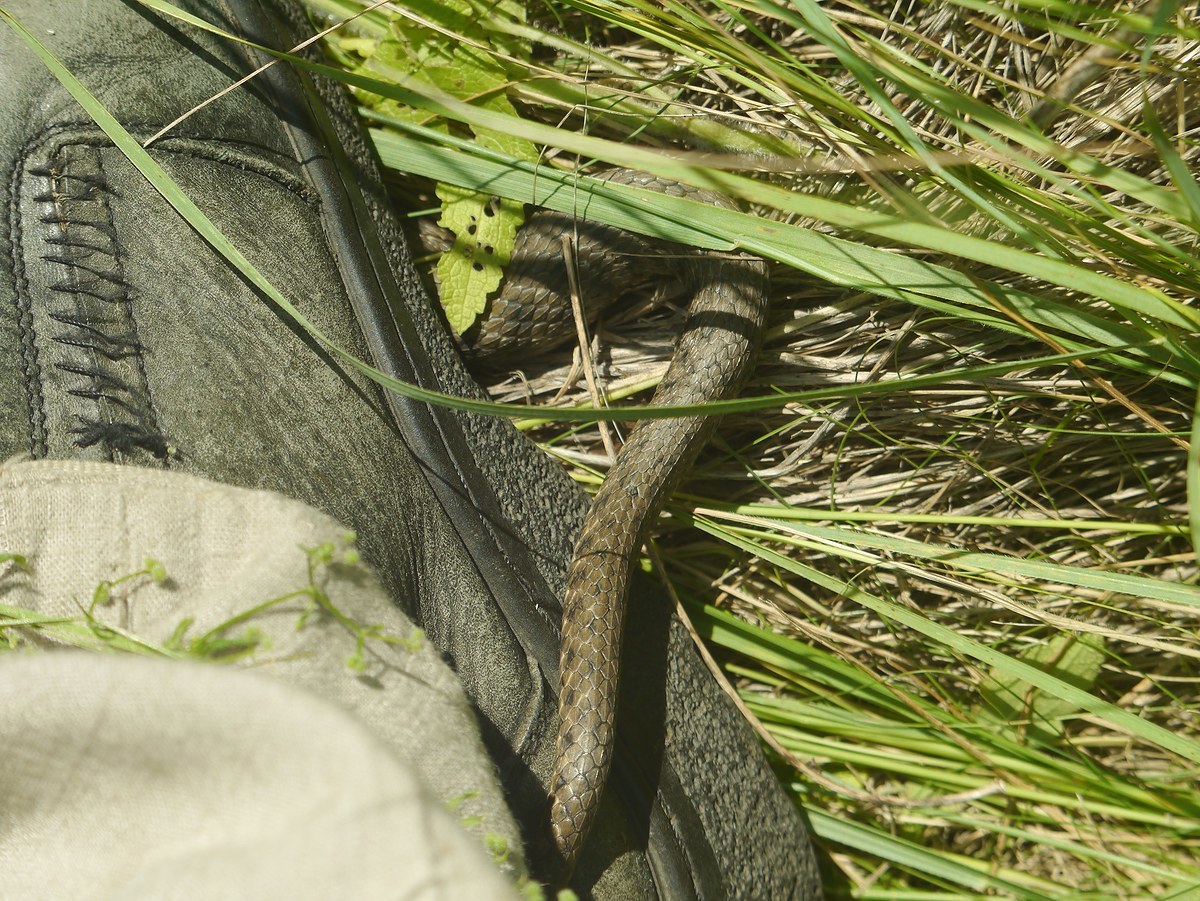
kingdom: Animalia
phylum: Chordata
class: Squamata
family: Colubridae
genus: Natrix
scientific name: Natrix tessellata
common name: Dice snake
